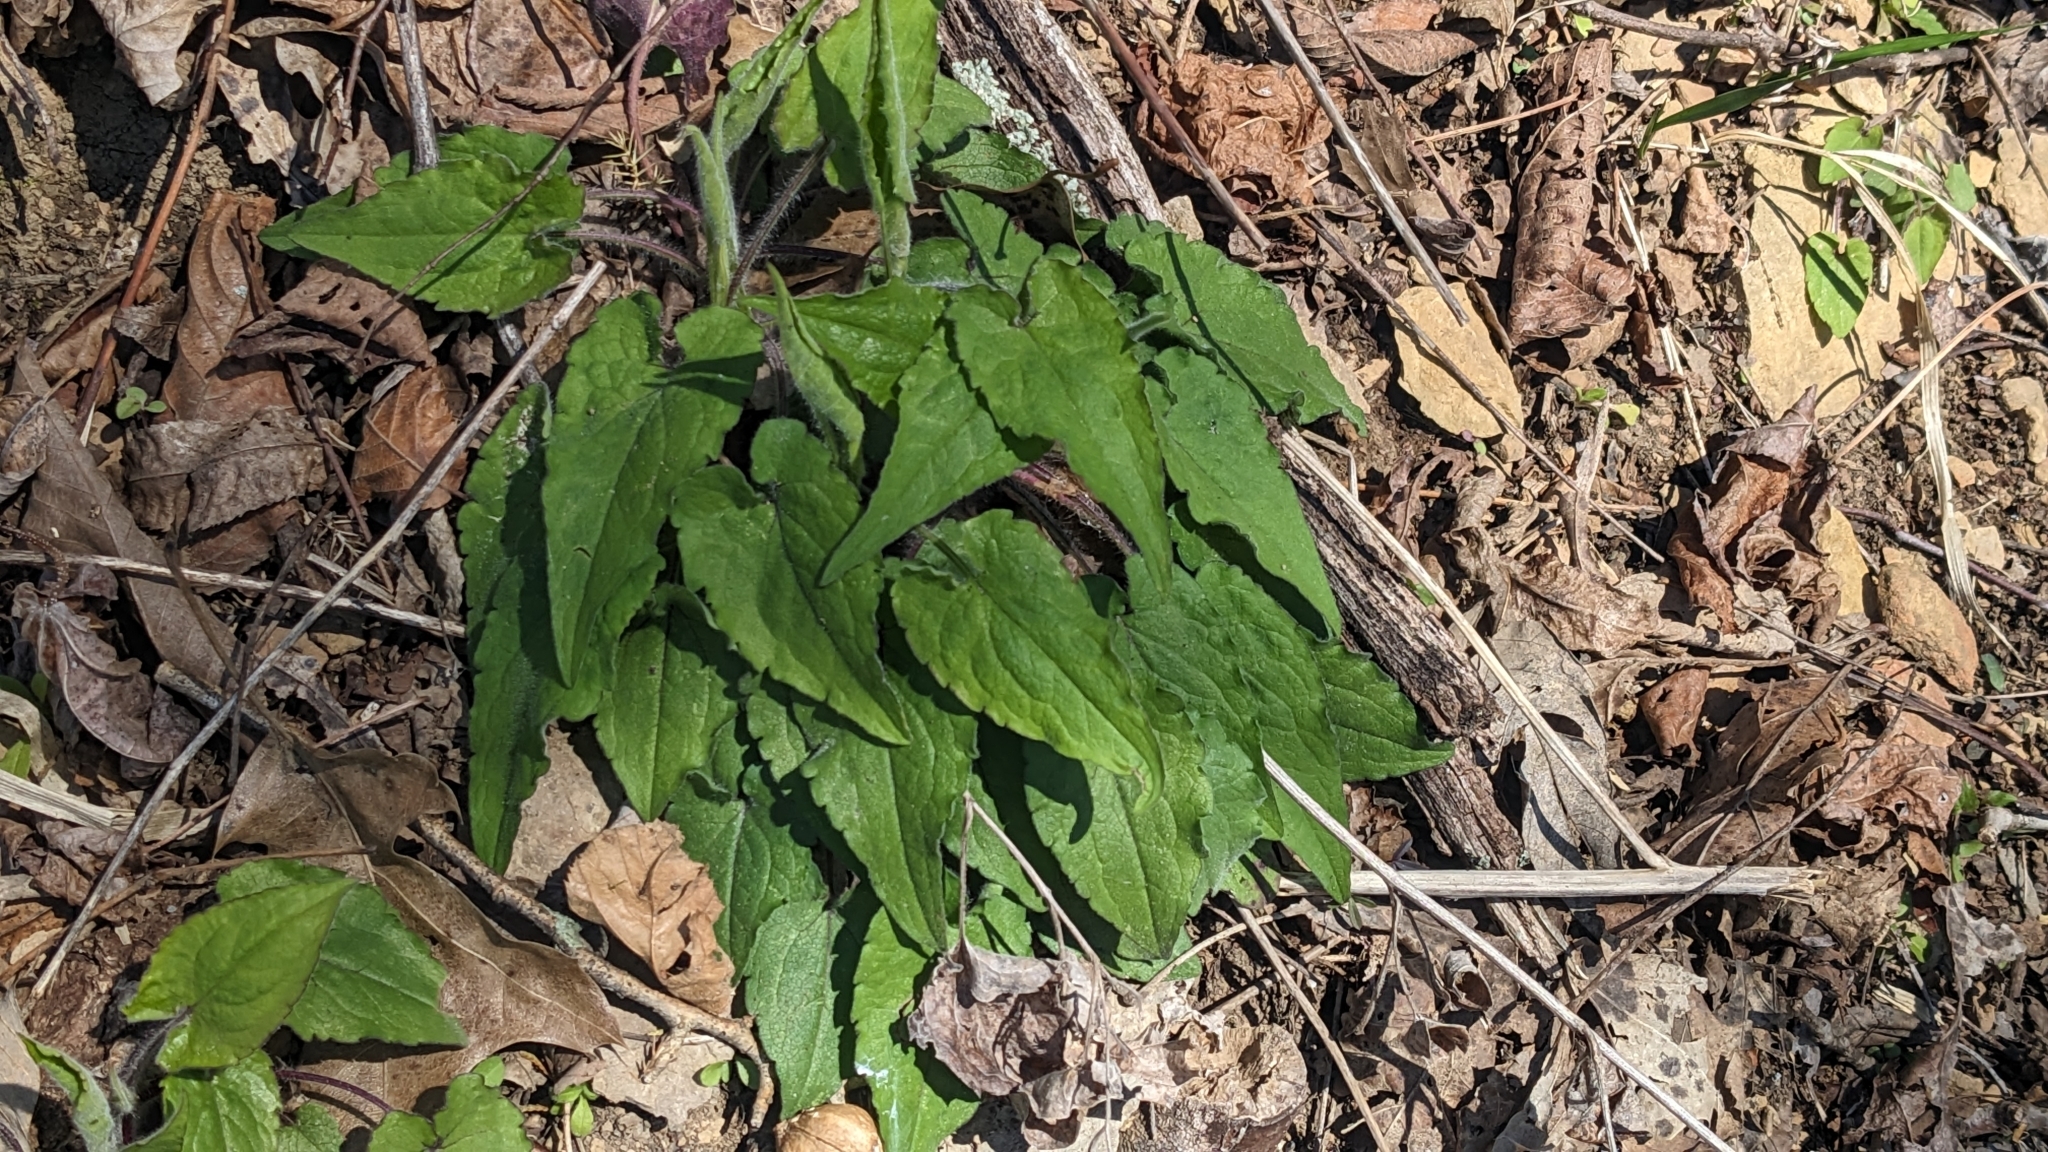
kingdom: Plantae
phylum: Tracheophyta
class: Magnoliopsida
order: Asterales
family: Asteraceae
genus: Symphyotrichum
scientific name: Symphyotrichum shortii
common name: Short's aster
